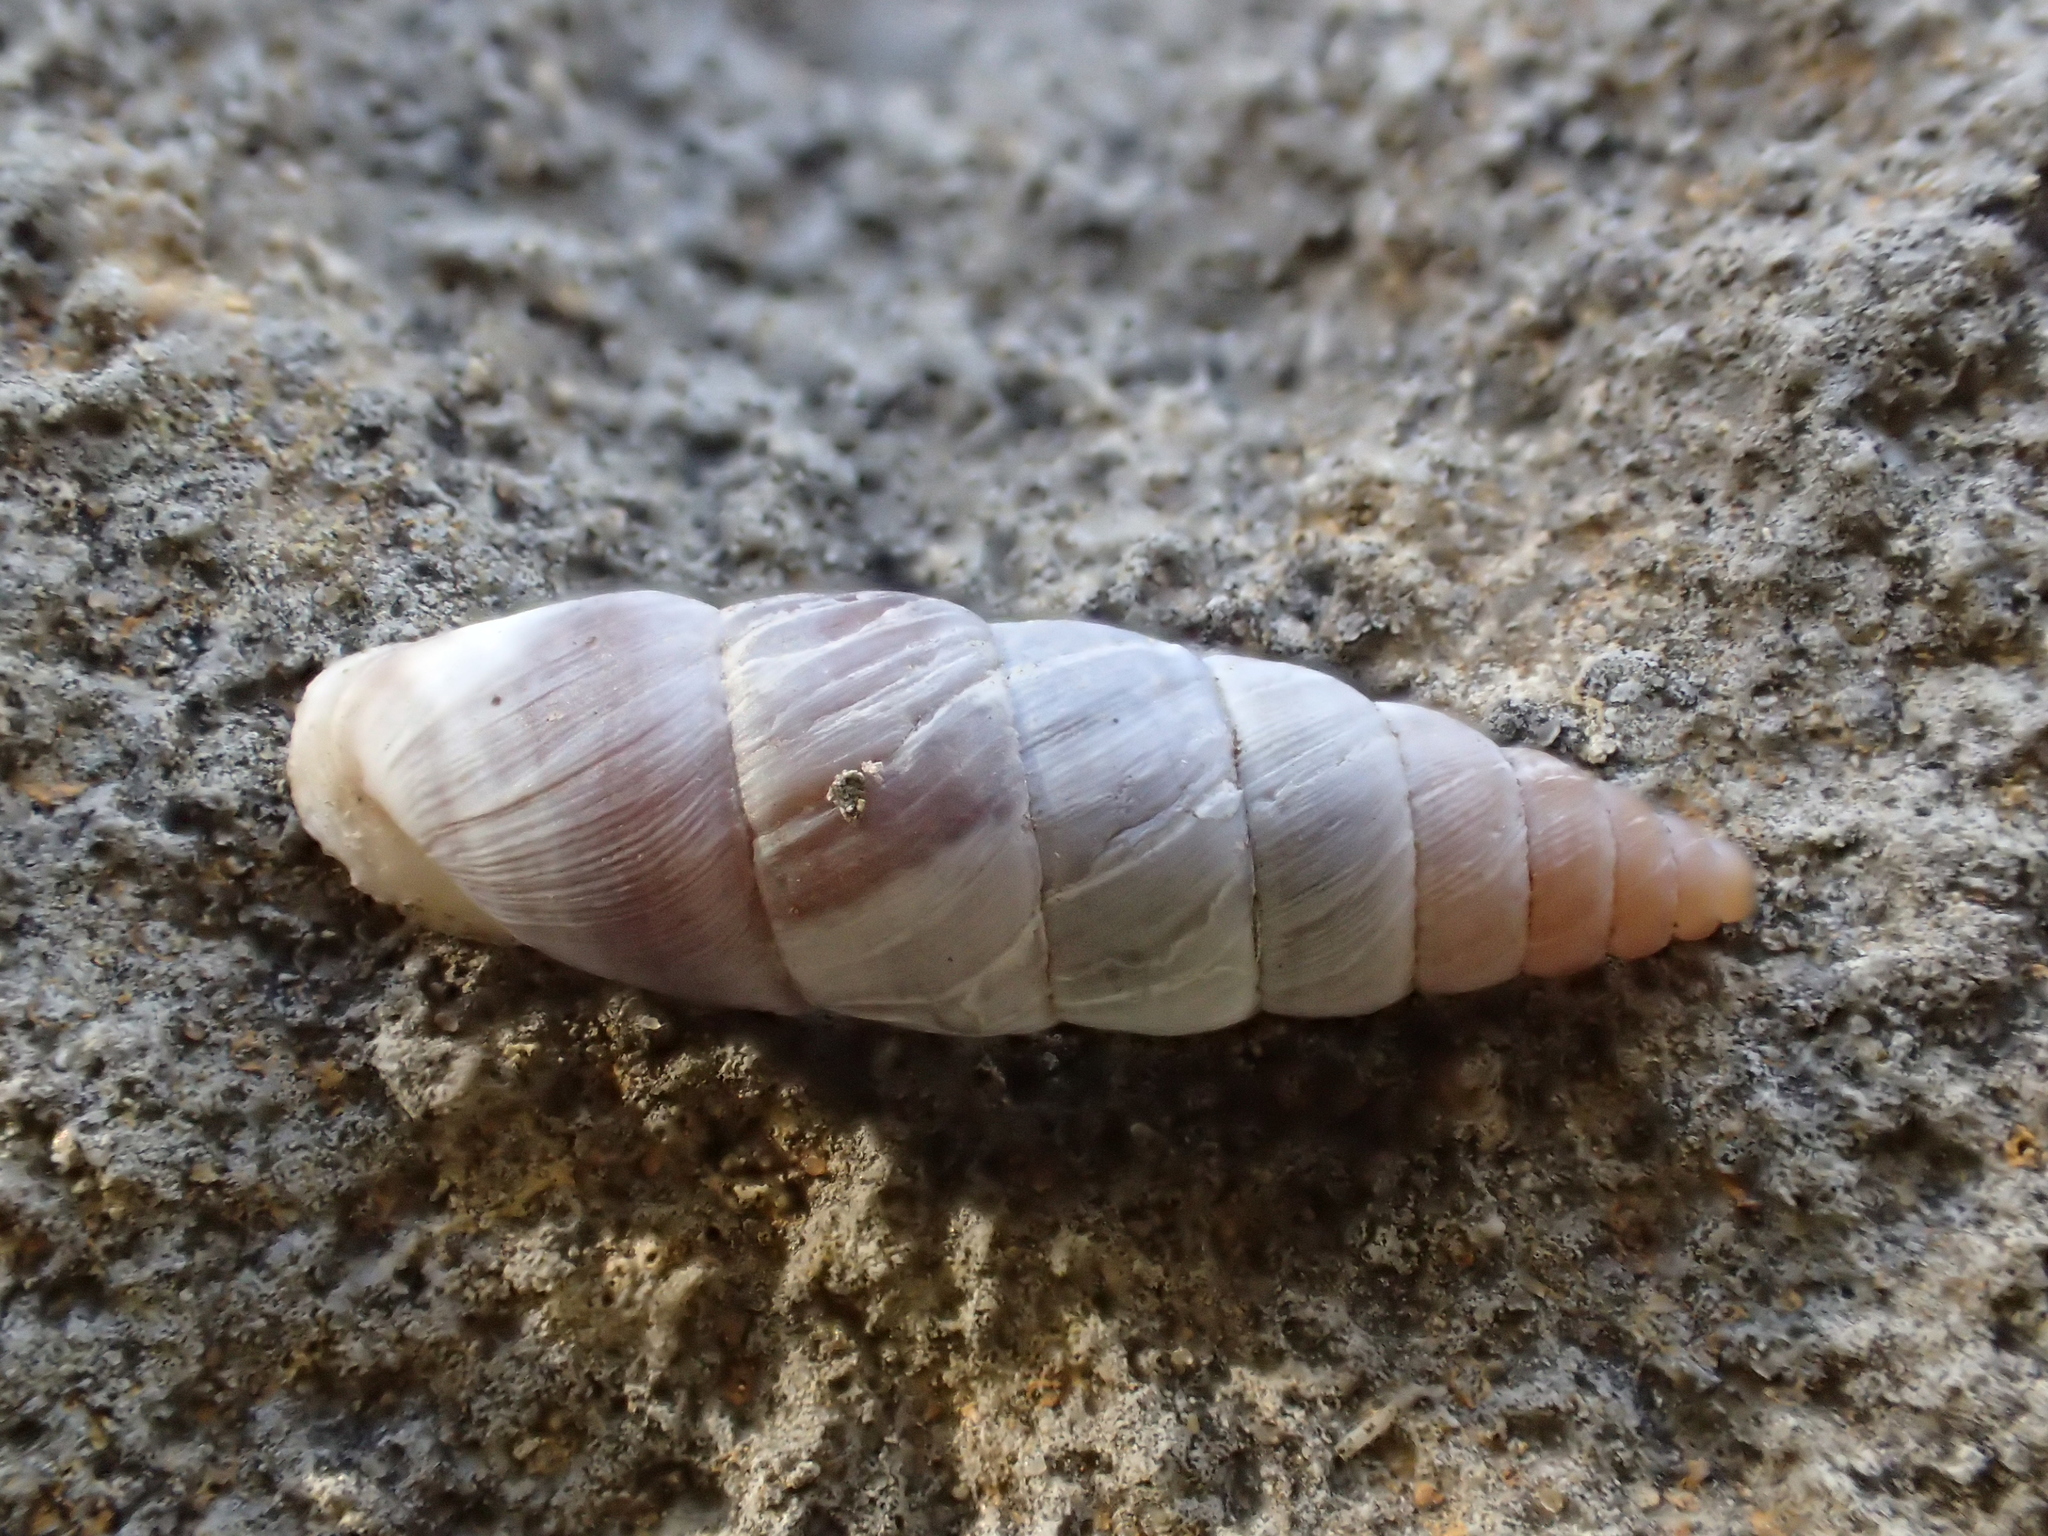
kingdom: Animalia
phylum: Mollusca
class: Gastropoda
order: Stylommatophora
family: Chondrinidae
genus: Solatopupa
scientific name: Solatopupa similis
